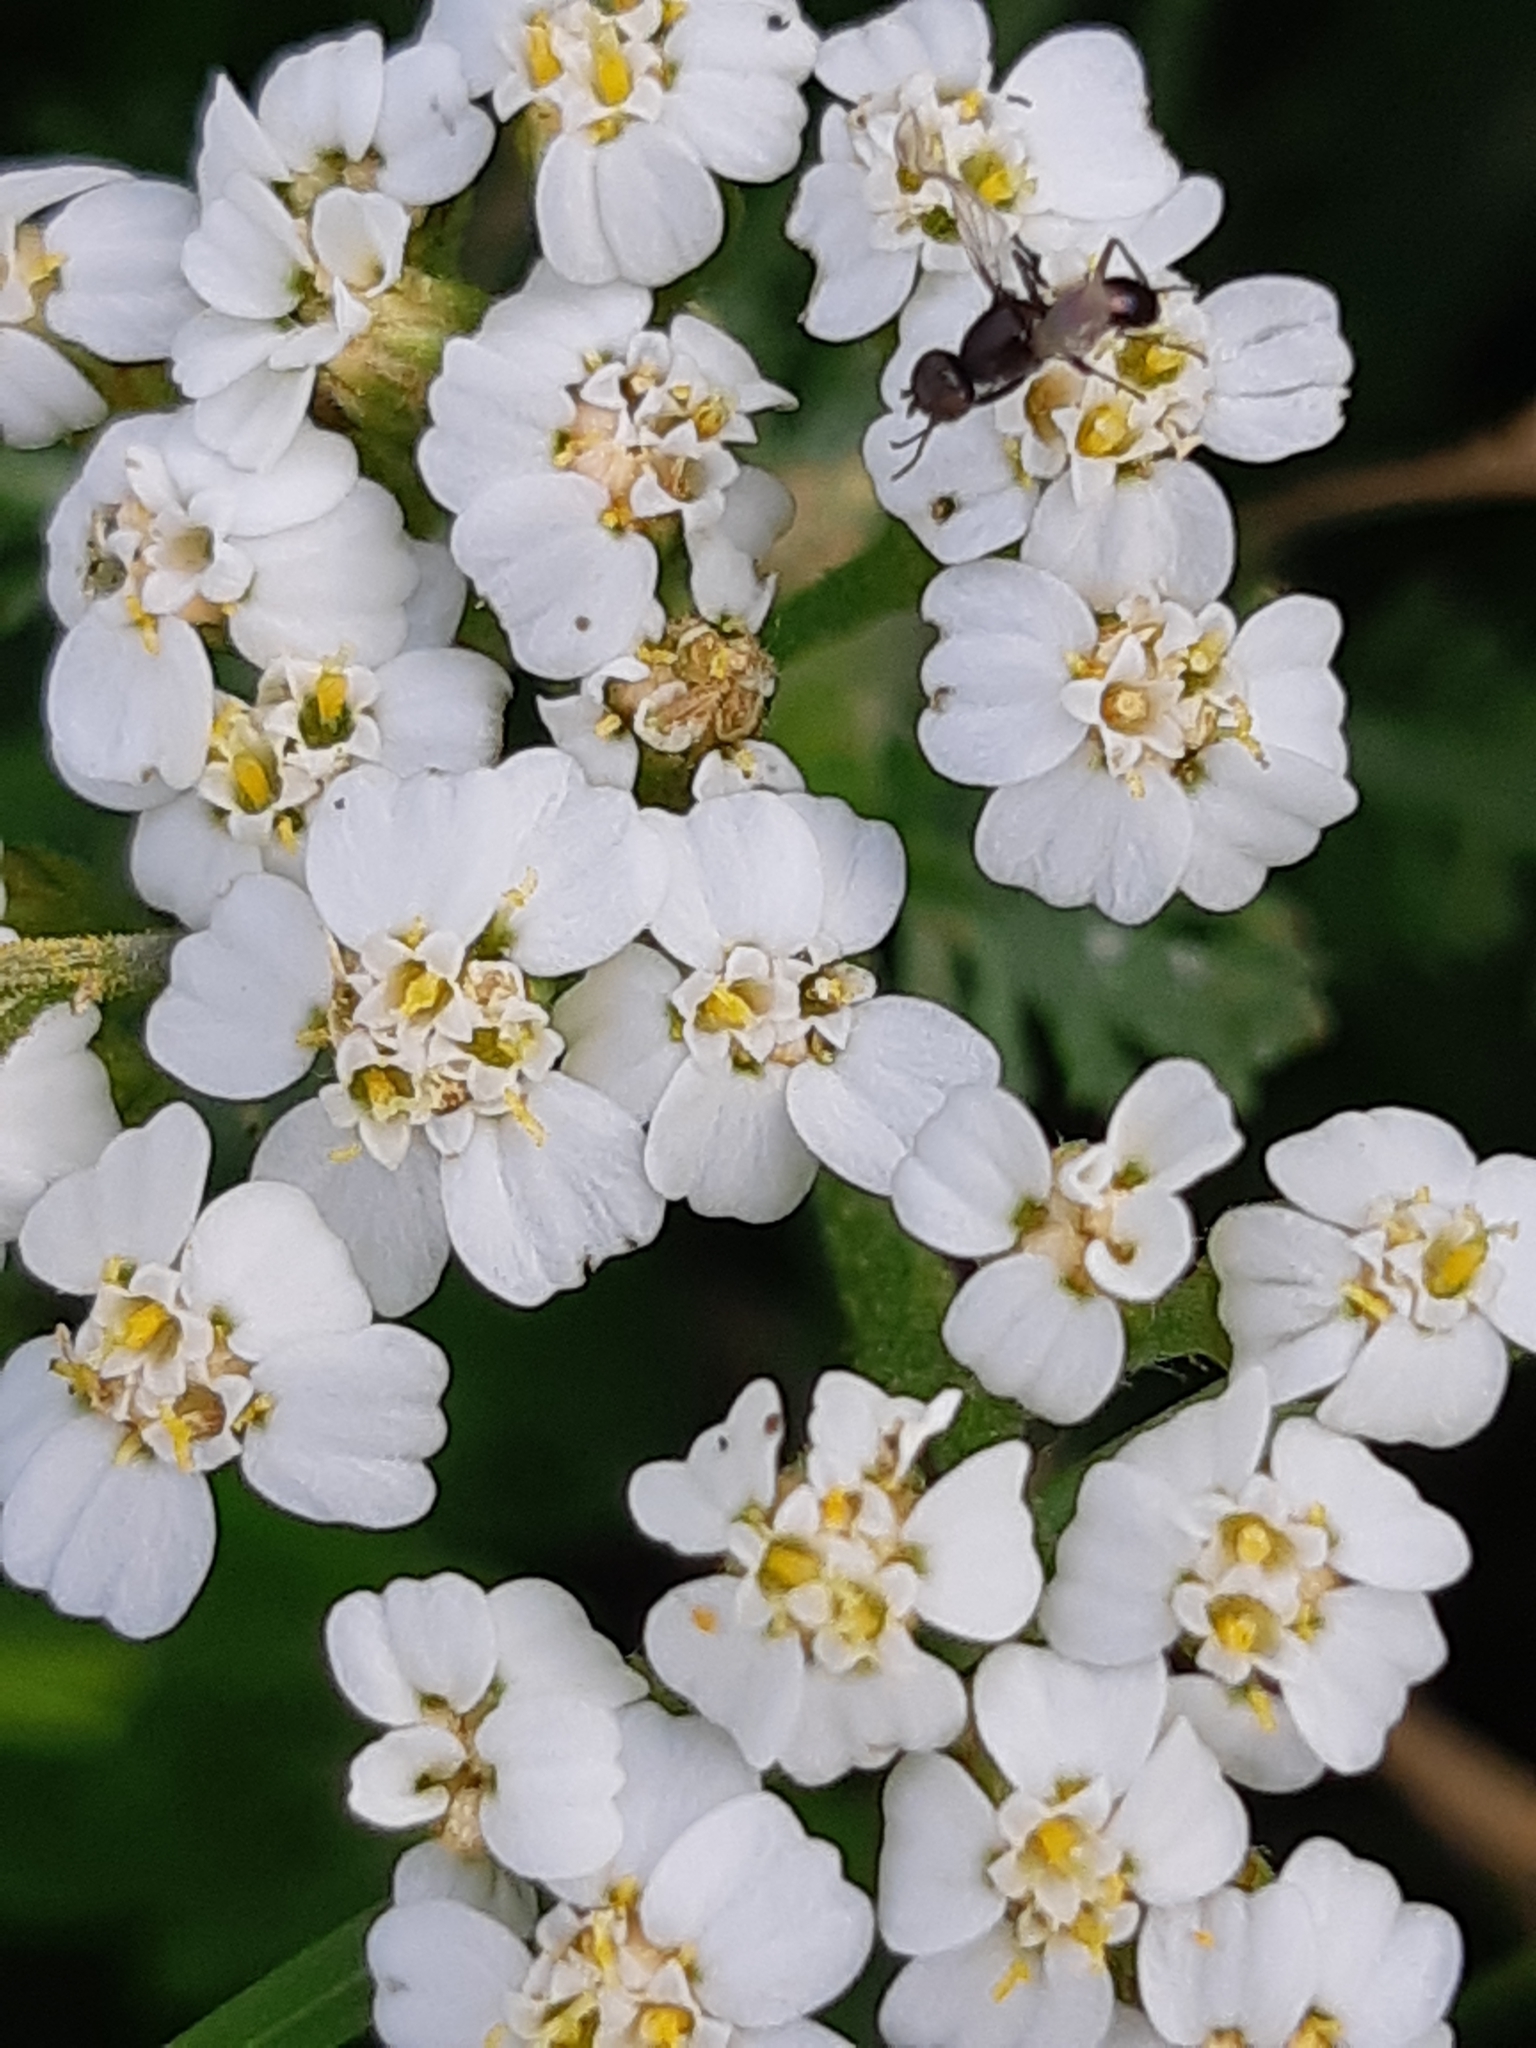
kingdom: Plantae
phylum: Tracheophyta
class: Magnoliopsida
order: Asterales
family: Asteraceae
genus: Achillea
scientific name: Achillea millefolium
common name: Yarrow
